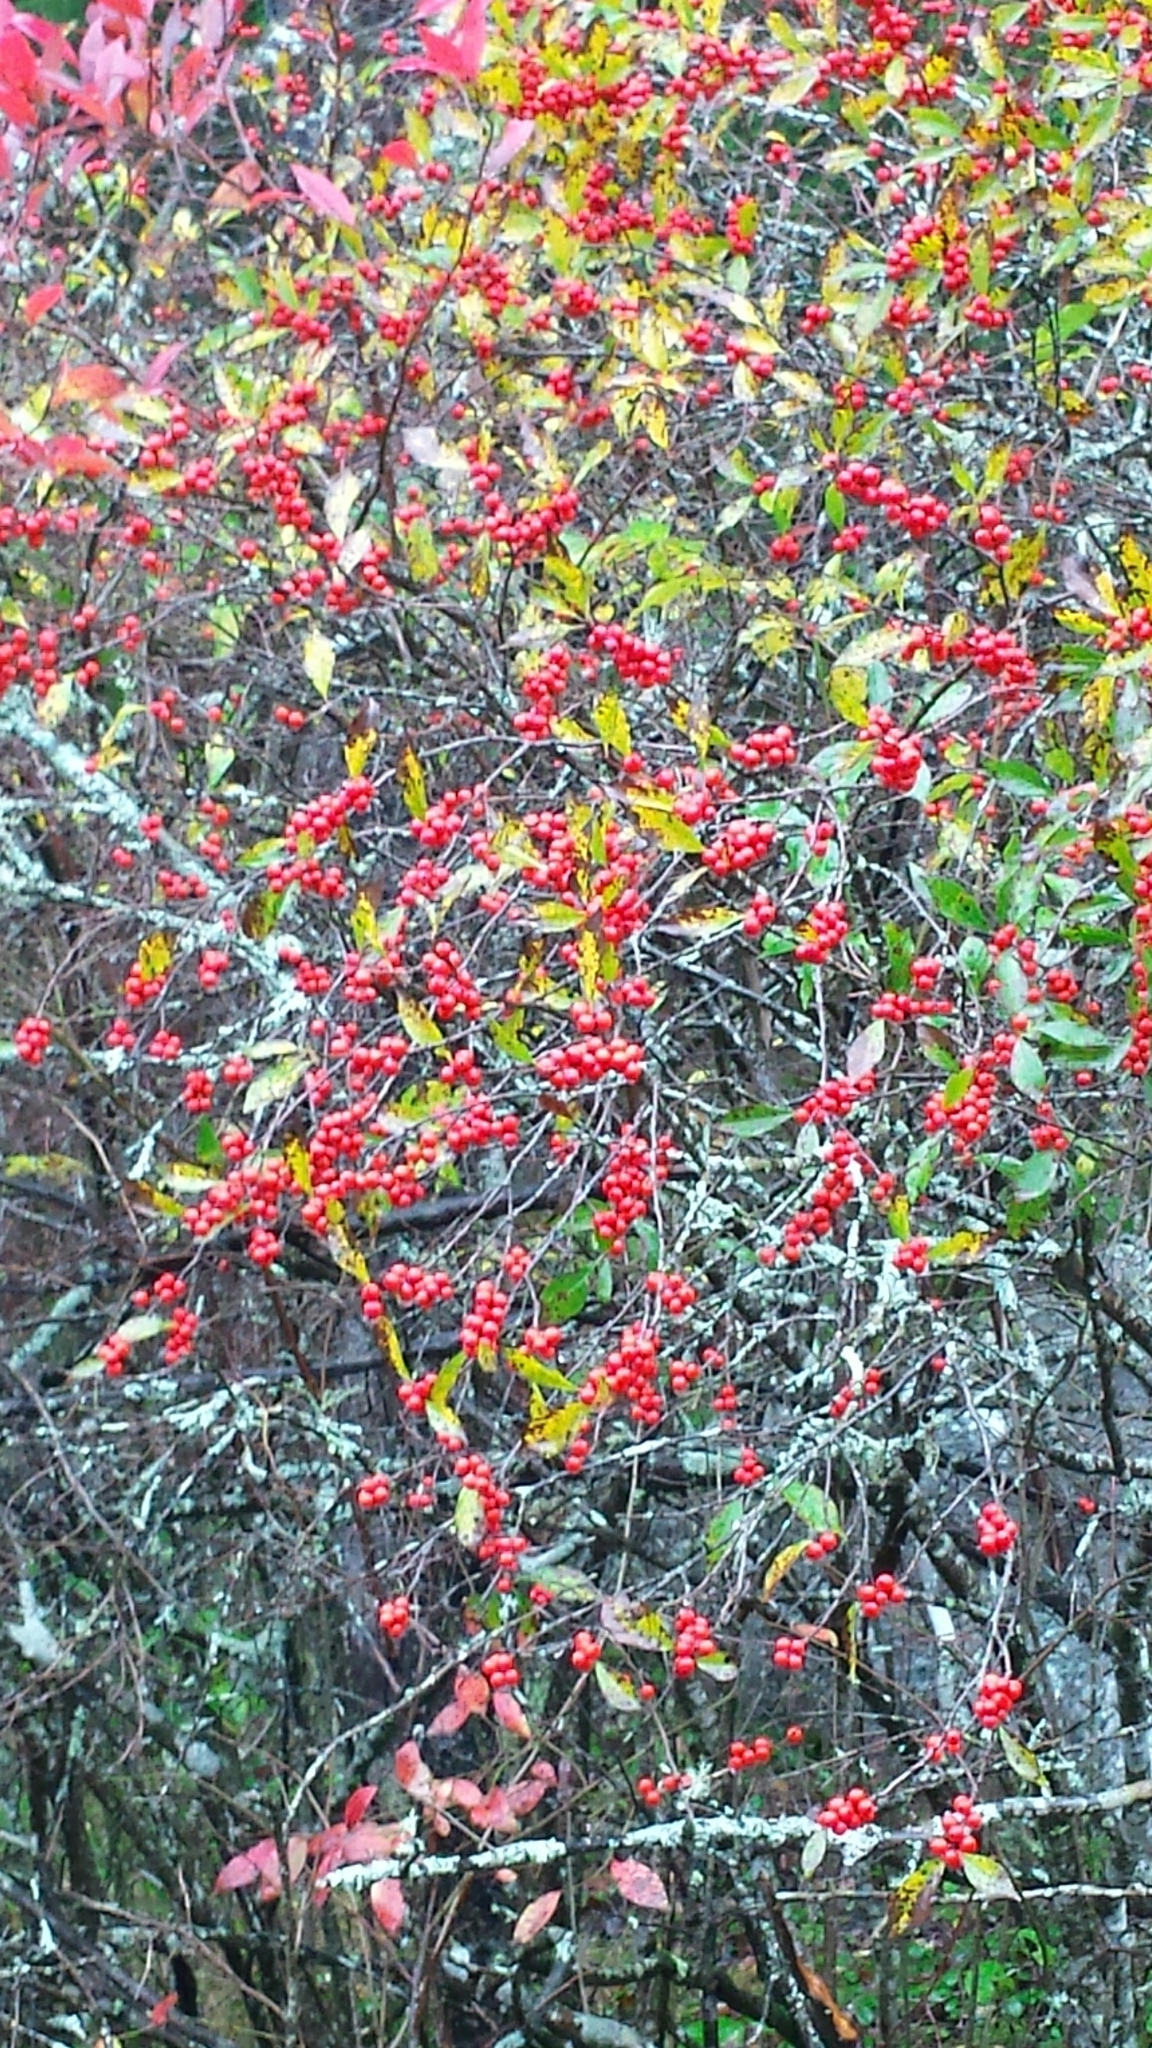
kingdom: Plantae
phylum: Tracheophyta
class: Magnoliopsida
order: Aquifoliales
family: Aquifoliaceae
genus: Ilex
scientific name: Ilex verticillata
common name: Virginia winterberry
